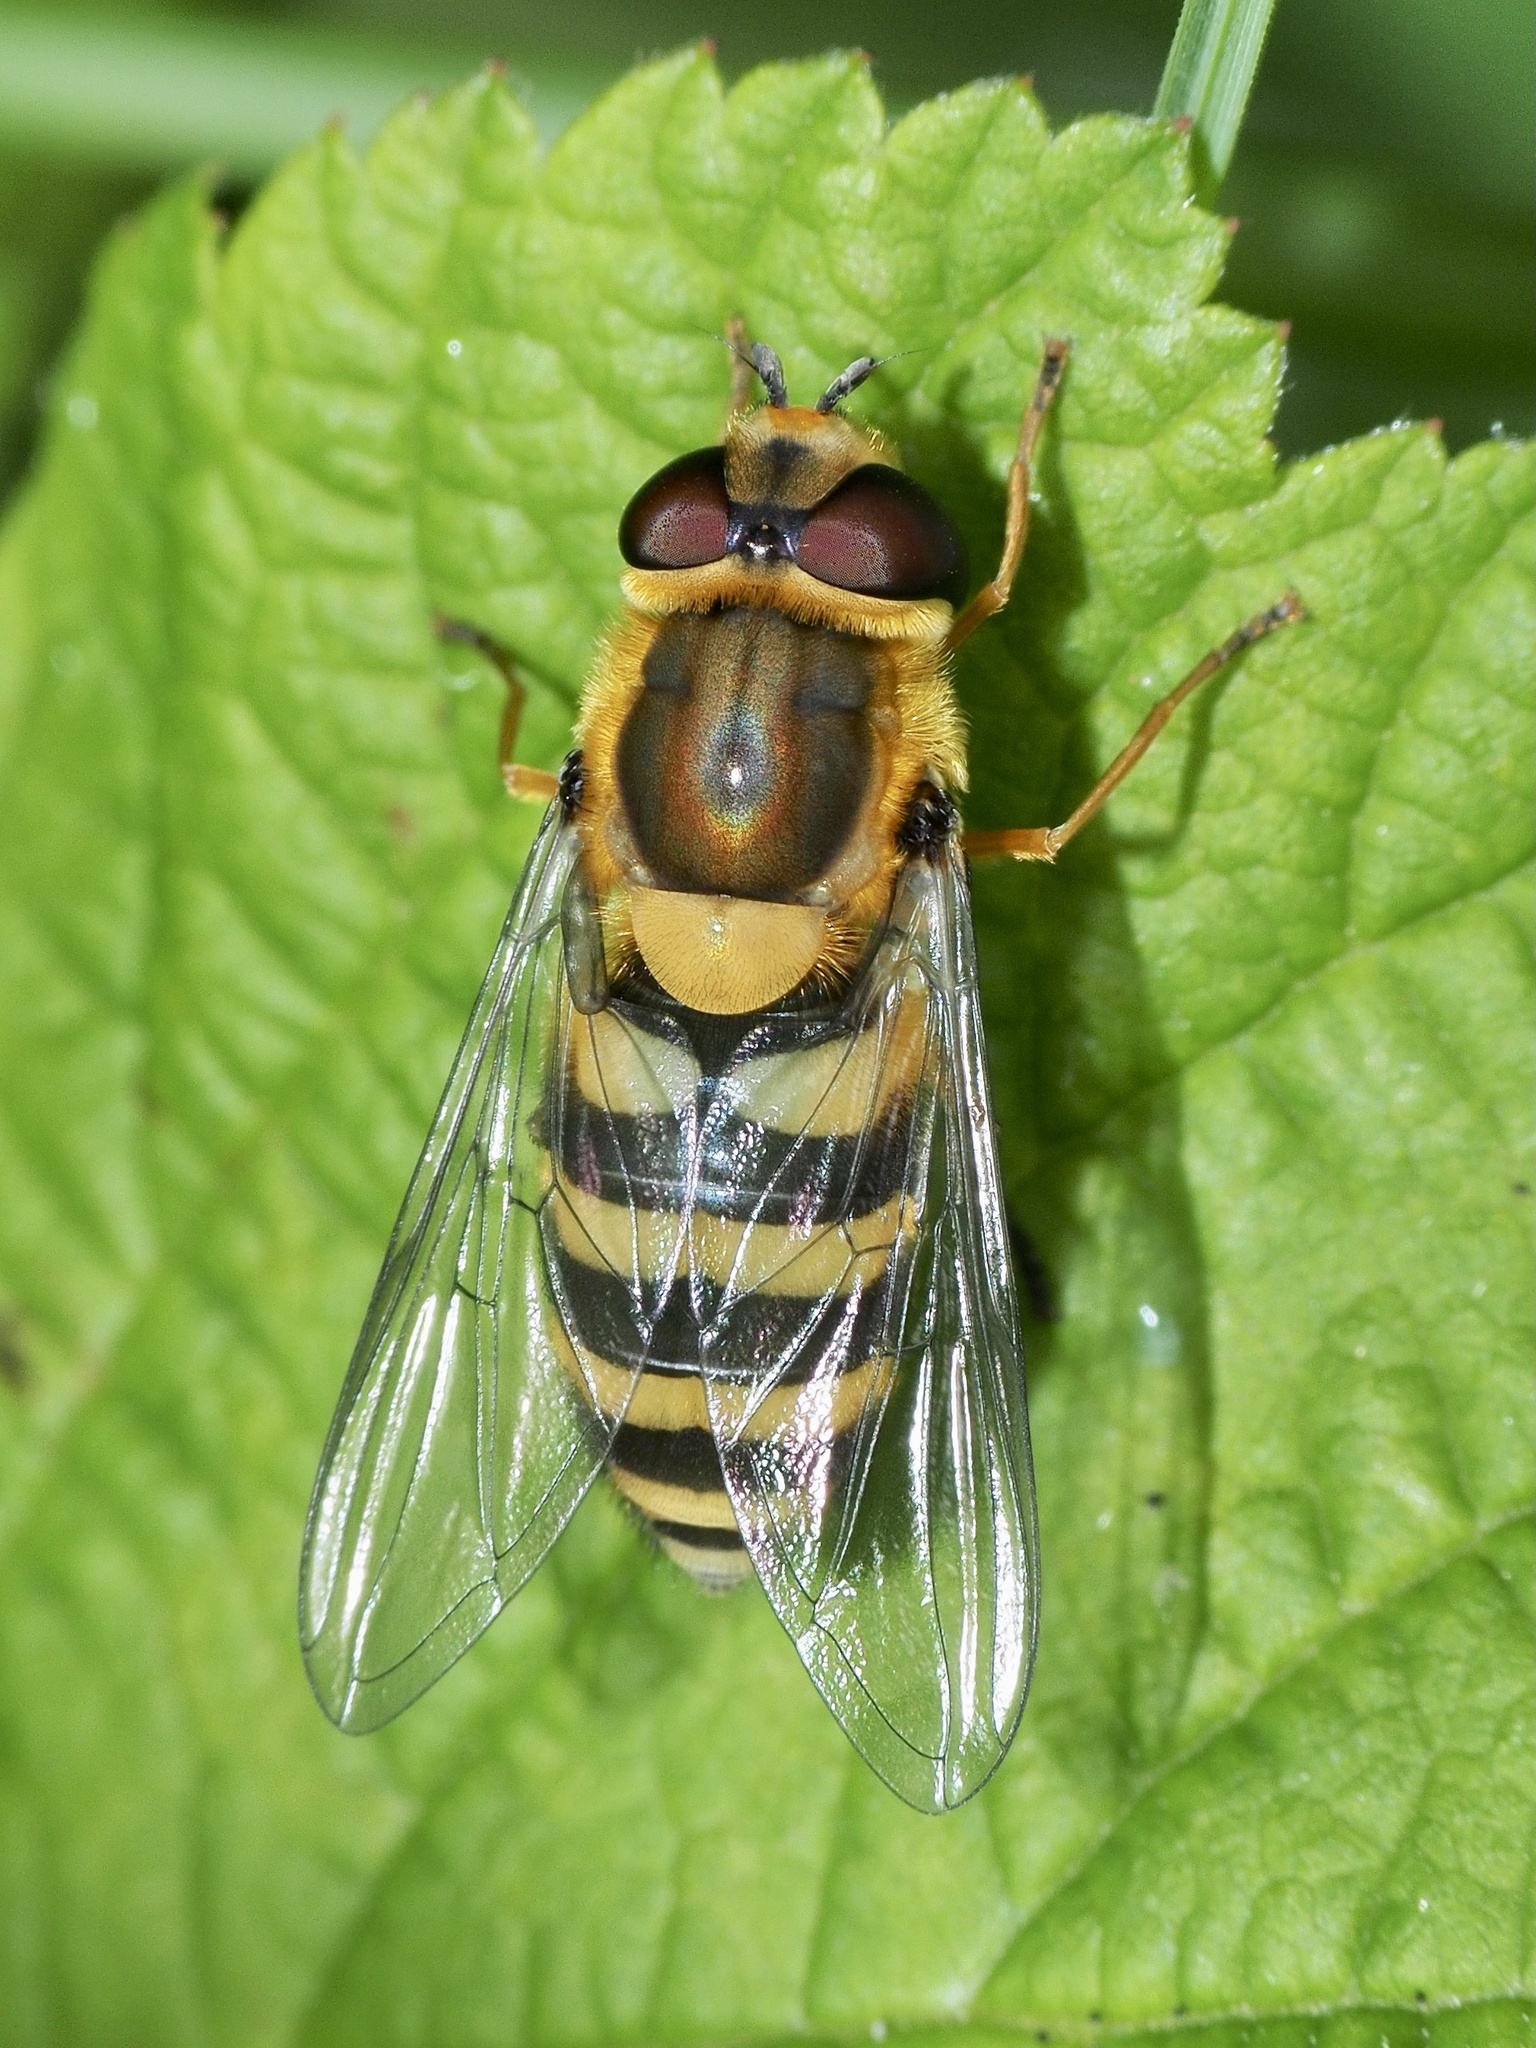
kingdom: Animalia
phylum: Arthropoda
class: Insecta
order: Diptera
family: Syrphidae
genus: Syrphus
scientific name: Syrphus
